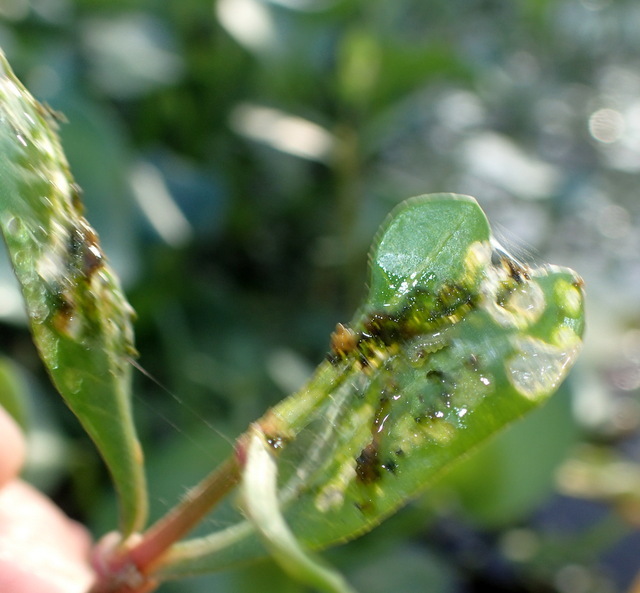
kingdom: Animalia
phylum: Arthropoda
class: Insecta
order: Lepidoptera
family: Crambidae
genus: Herpetogramma
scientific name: Herpetogramma bipunctalis
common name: Southern beet webworm
